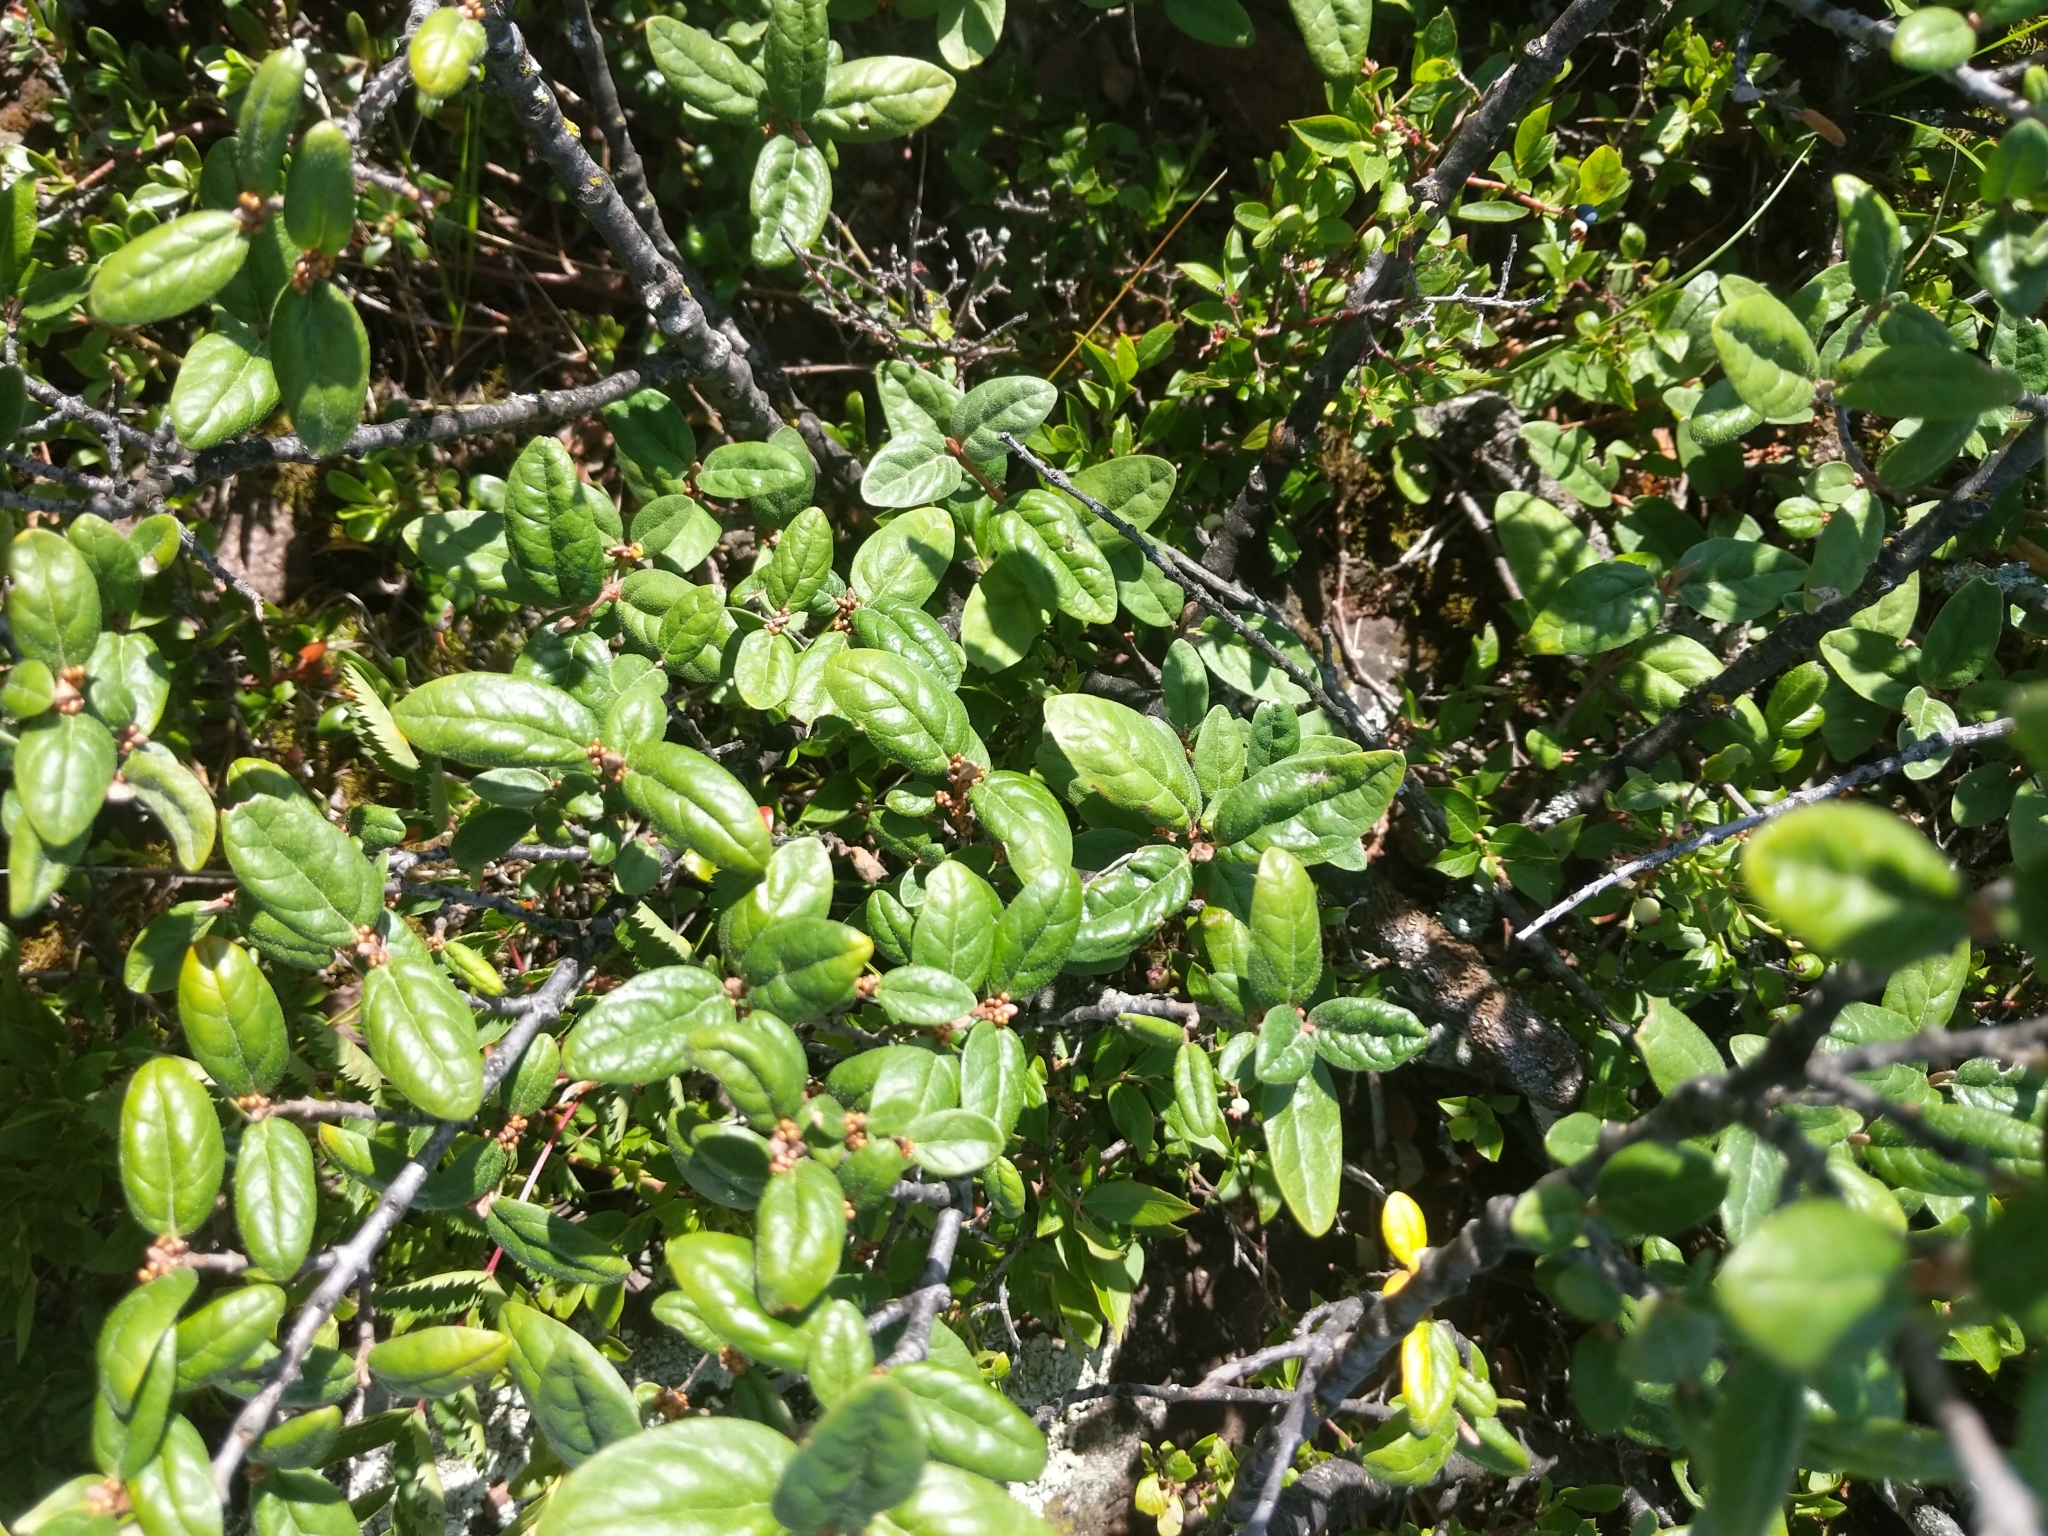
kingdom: Plantae
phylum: Tracheophyta
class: Magnoliopsida
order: Rosales
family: Elaeagnaceae
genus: Shepherdia
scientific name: Shepherdia canadensis
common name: Soapberry
